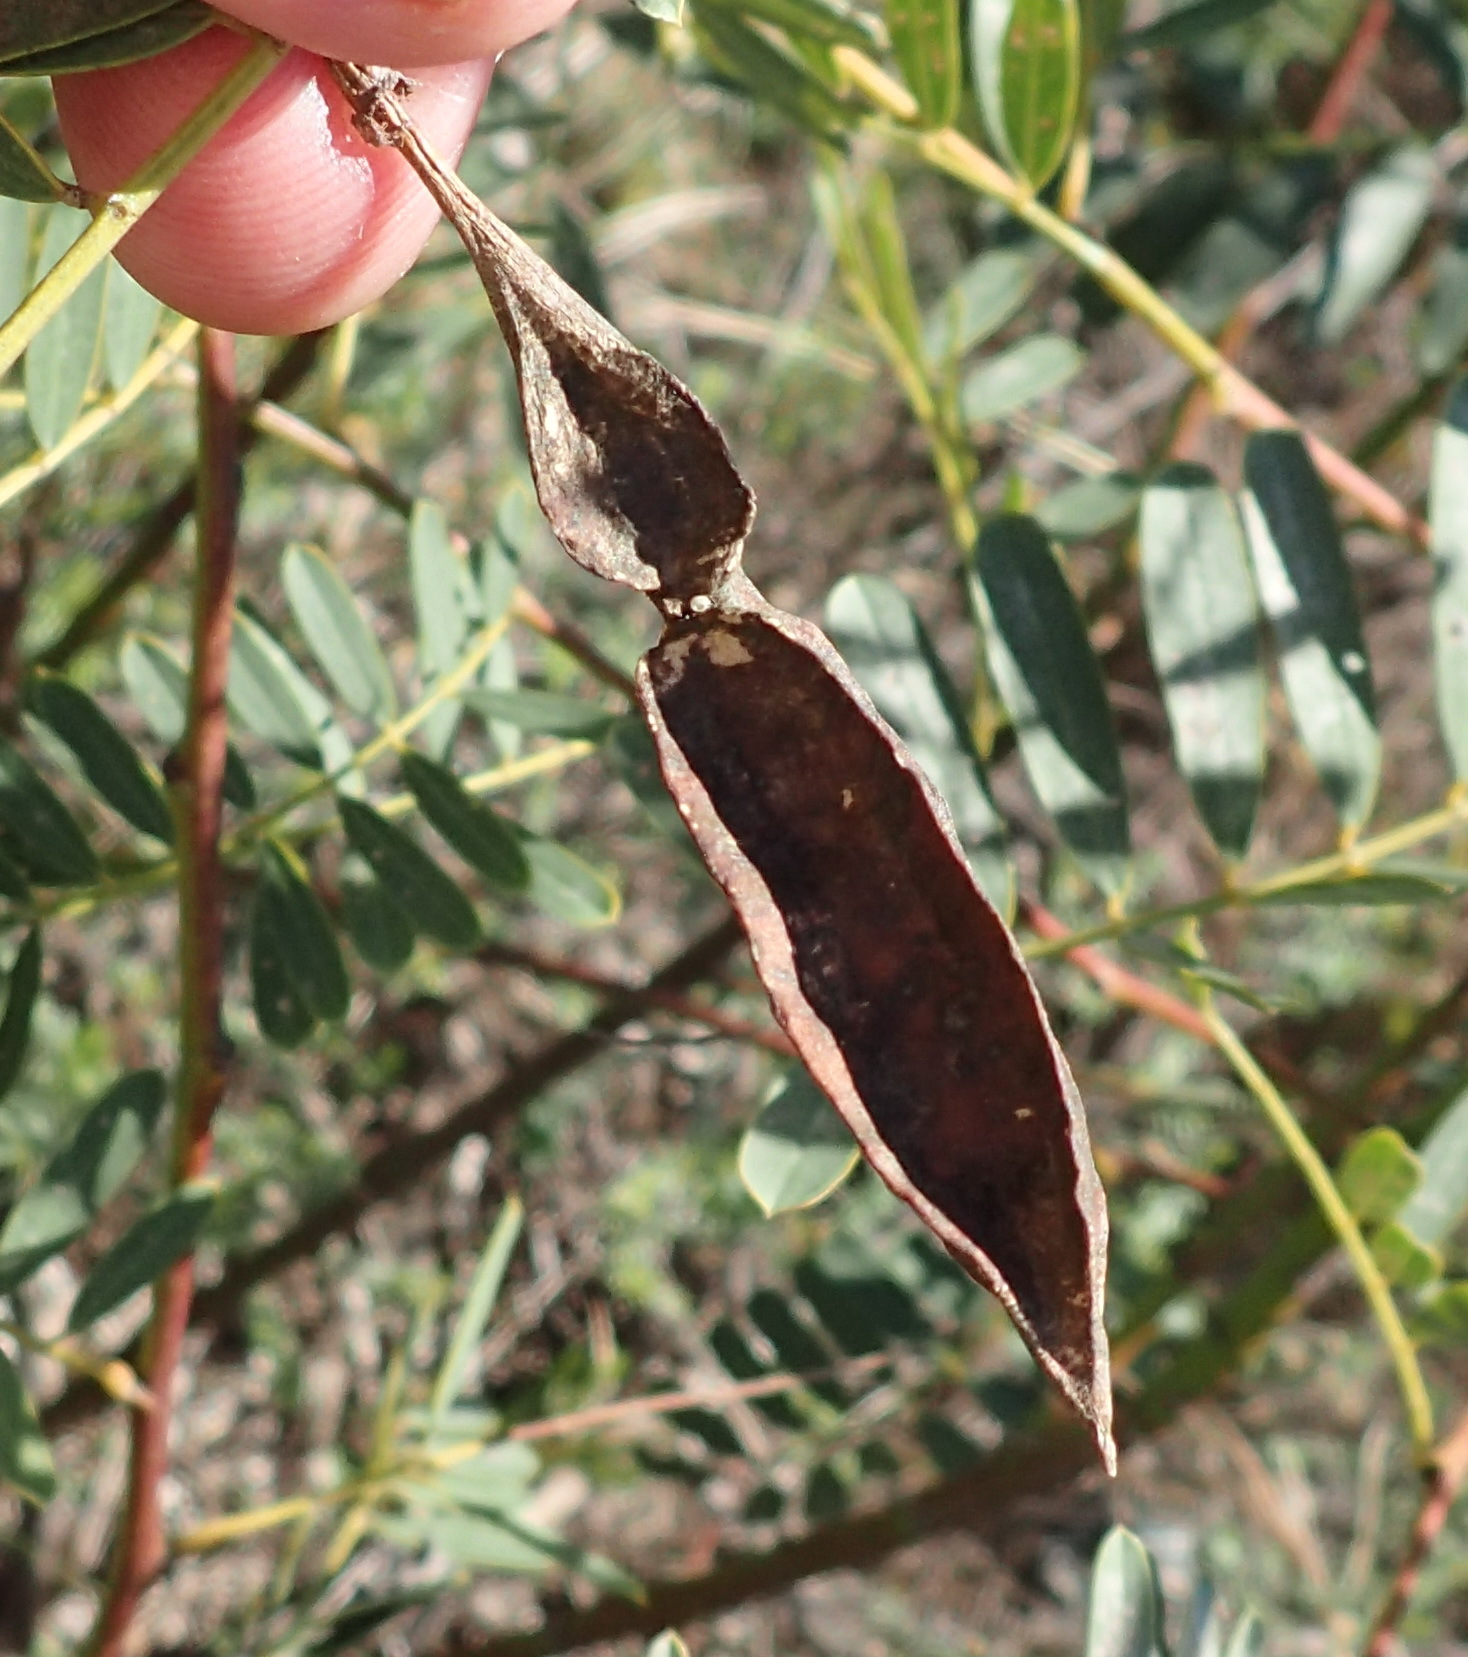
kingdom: Plantae
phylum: Tracheophyta
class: Magnoliopsida
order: Fabales
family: Fabaceae
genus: Sesbania
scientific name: Sesbania punicea
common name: Rattlebox
